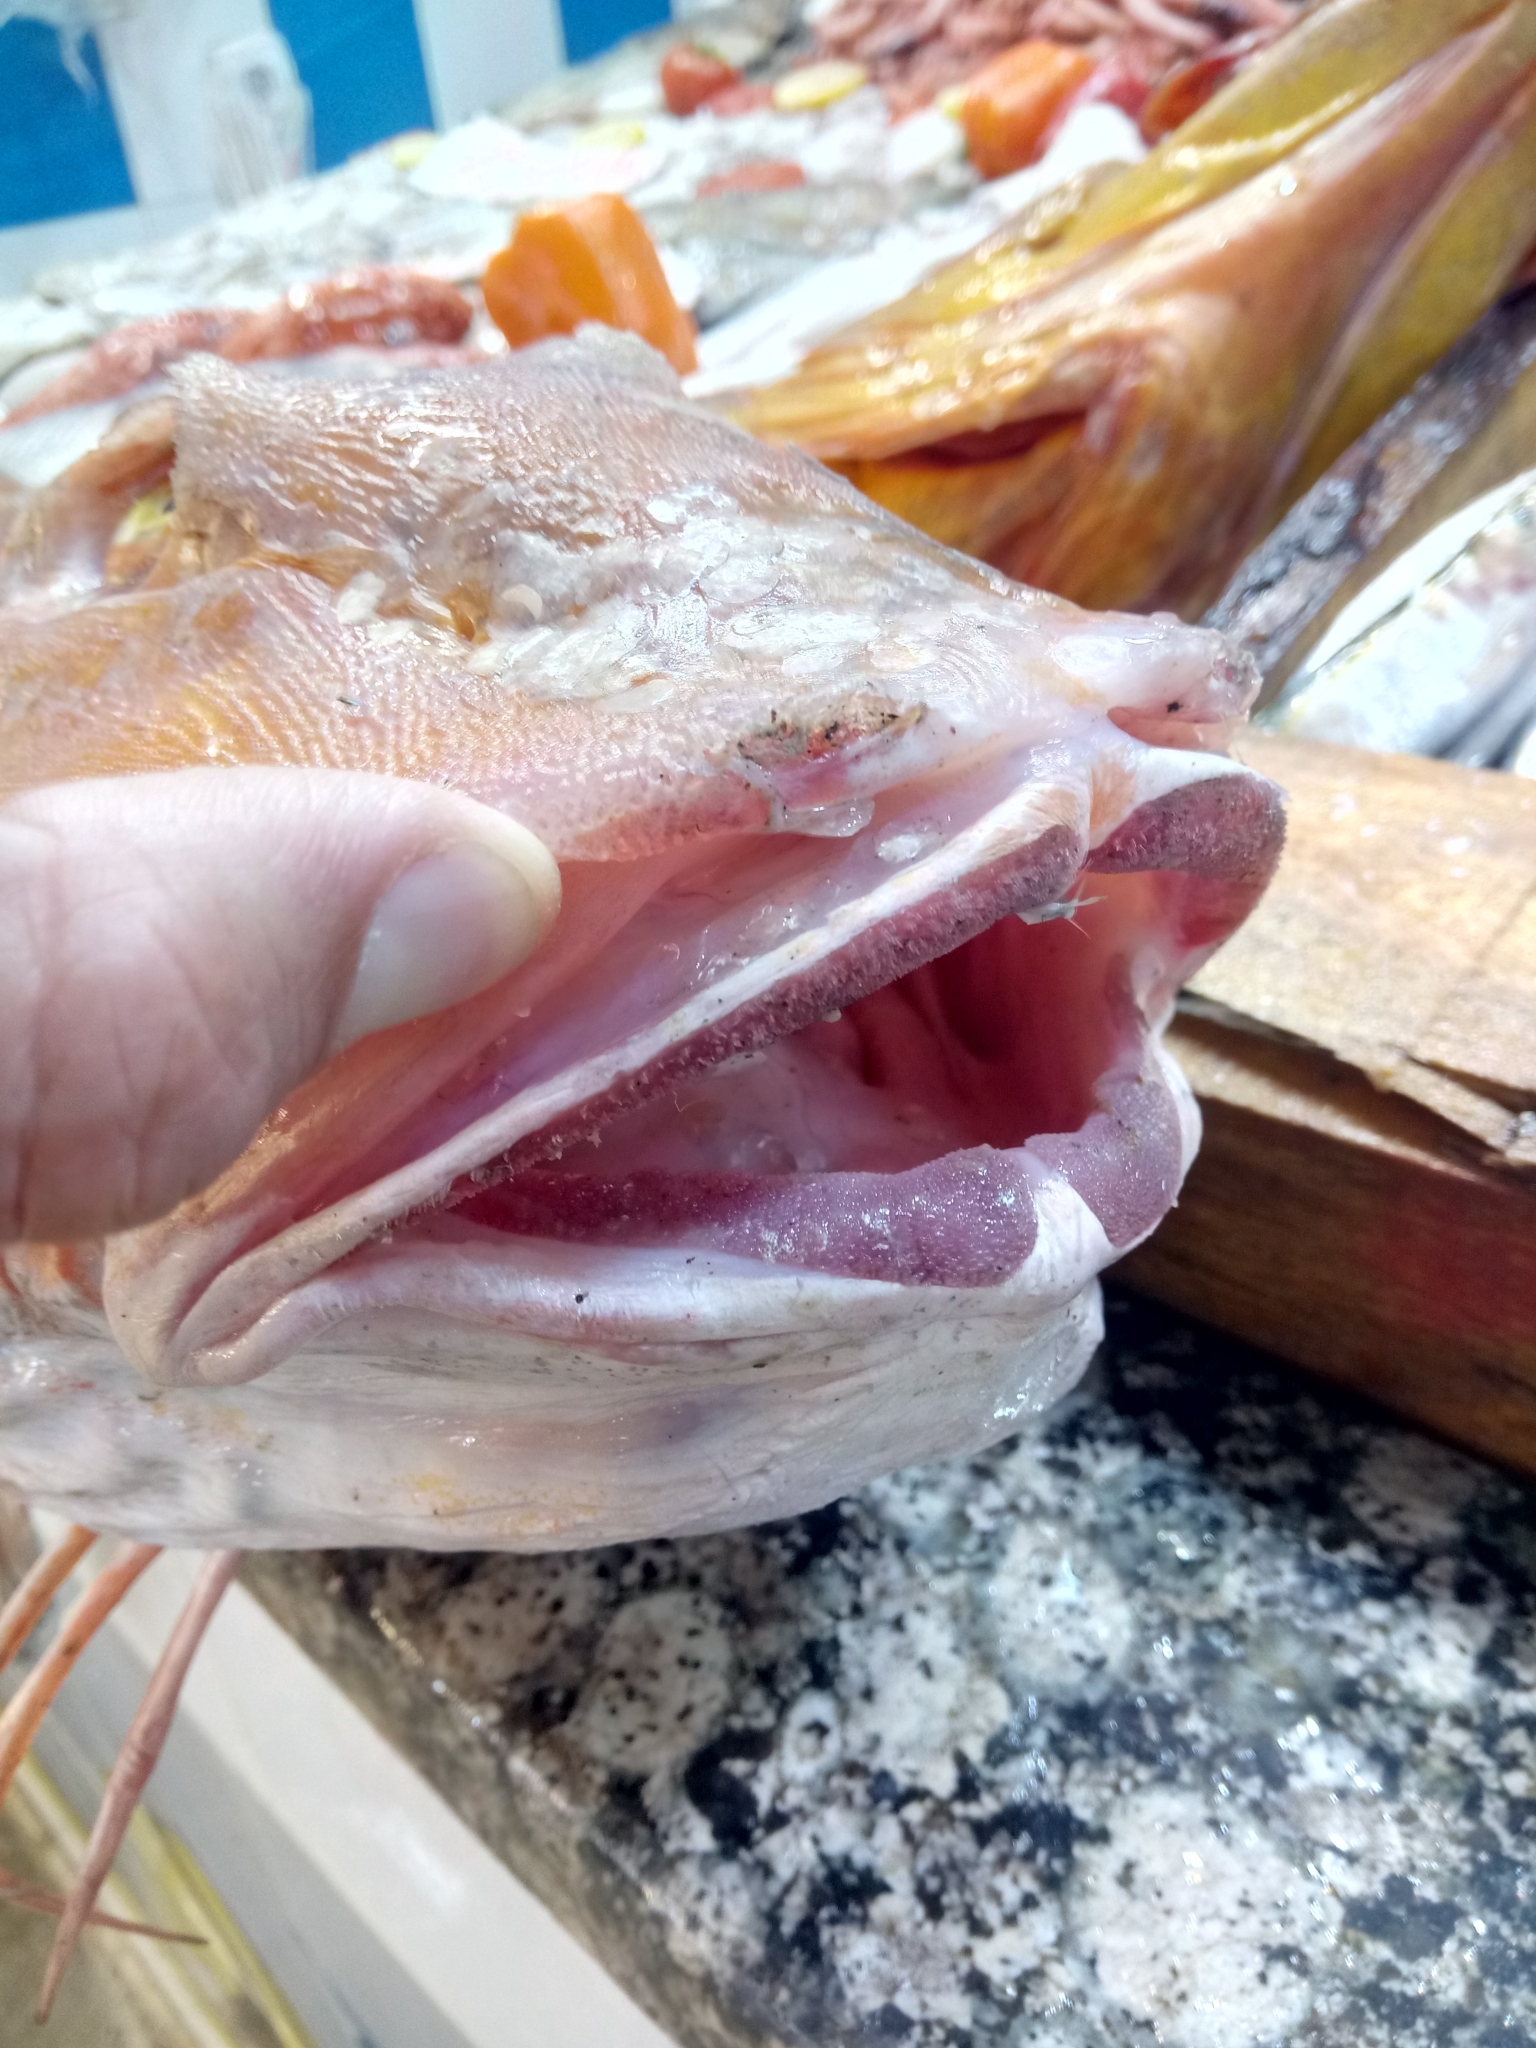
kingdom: Animalia
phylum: Chordata
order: Scorpaeniformes
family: Triglidae
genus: Chelidonichthys
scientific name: Chelidonichthys lucerna
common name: Tub gurnard
